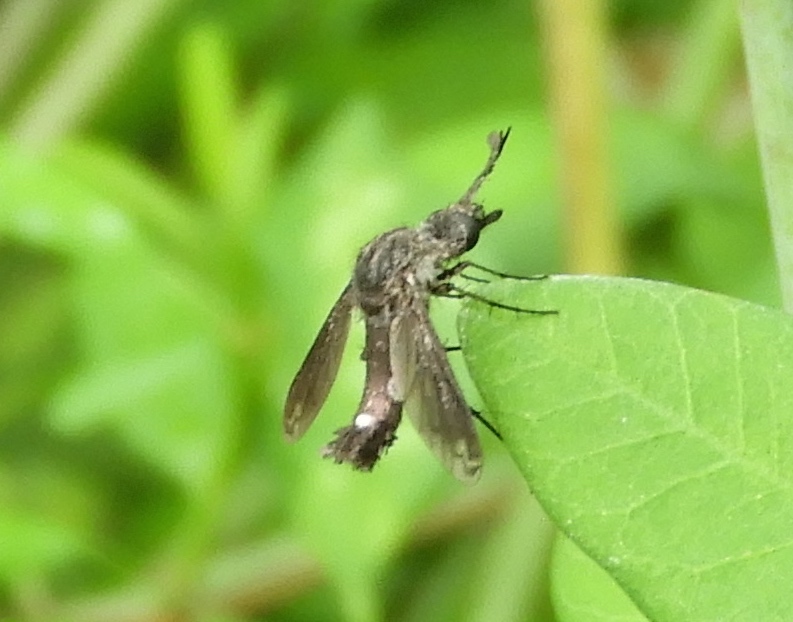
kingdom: Animalia
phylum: Arthropoda
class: Insecta
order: Diptera
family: Bombyliidae
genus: Lepidophora
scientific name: Lepidophora vetusta
